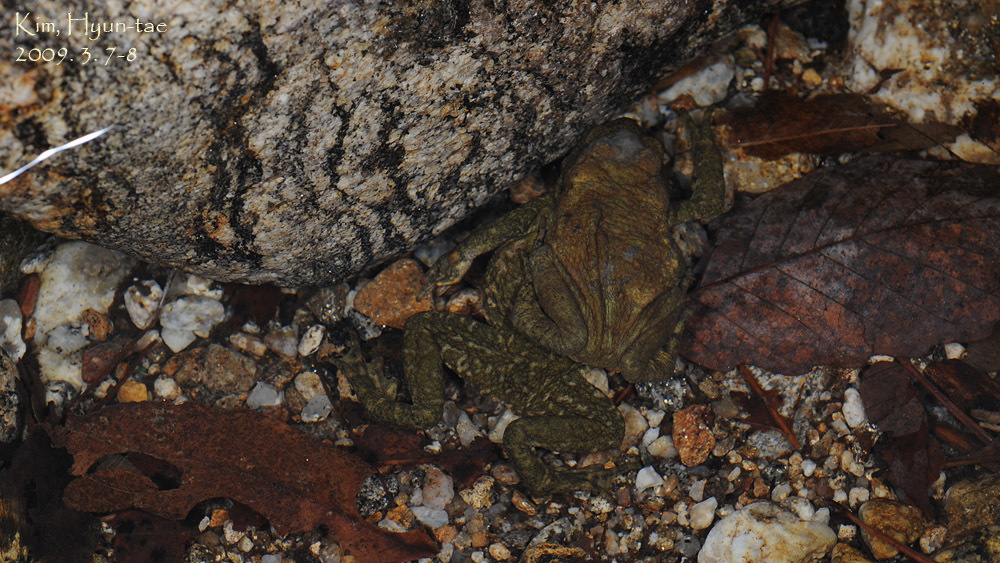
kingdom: Animalia
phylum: Chordata
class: Amphibia
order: Anura
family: Bufonidae
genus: Bufo
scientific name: Bufo stejnegeri
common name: Water toad
